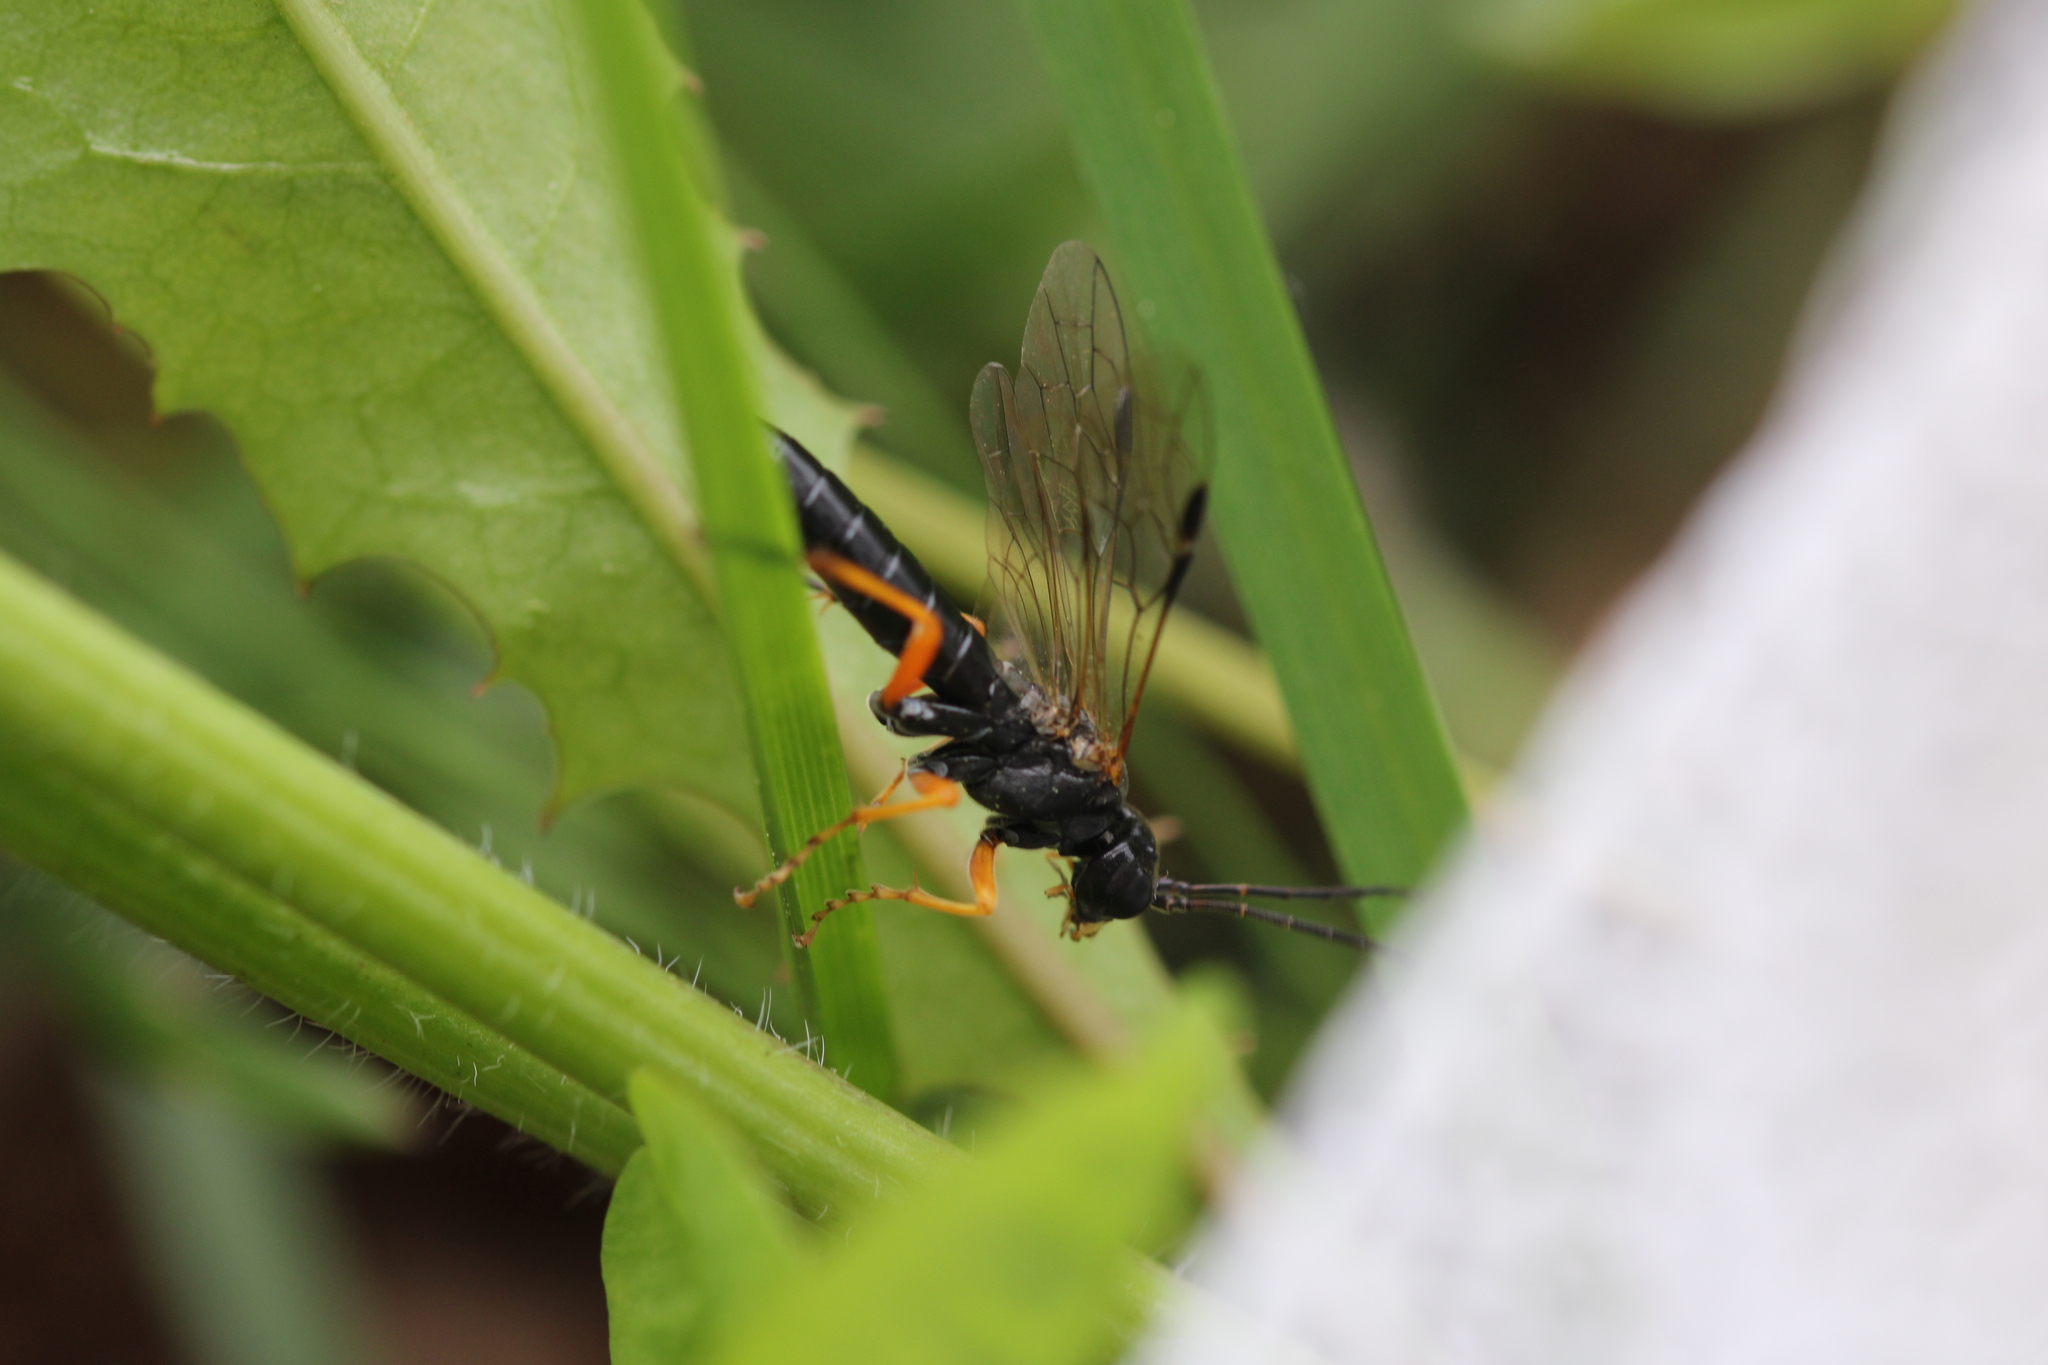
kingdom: Animalia
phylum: Arthropoda
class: Insecta
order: Hymenoptera
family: Tenthredinidae
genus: Tenthredo
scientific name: Tenthredo atra
